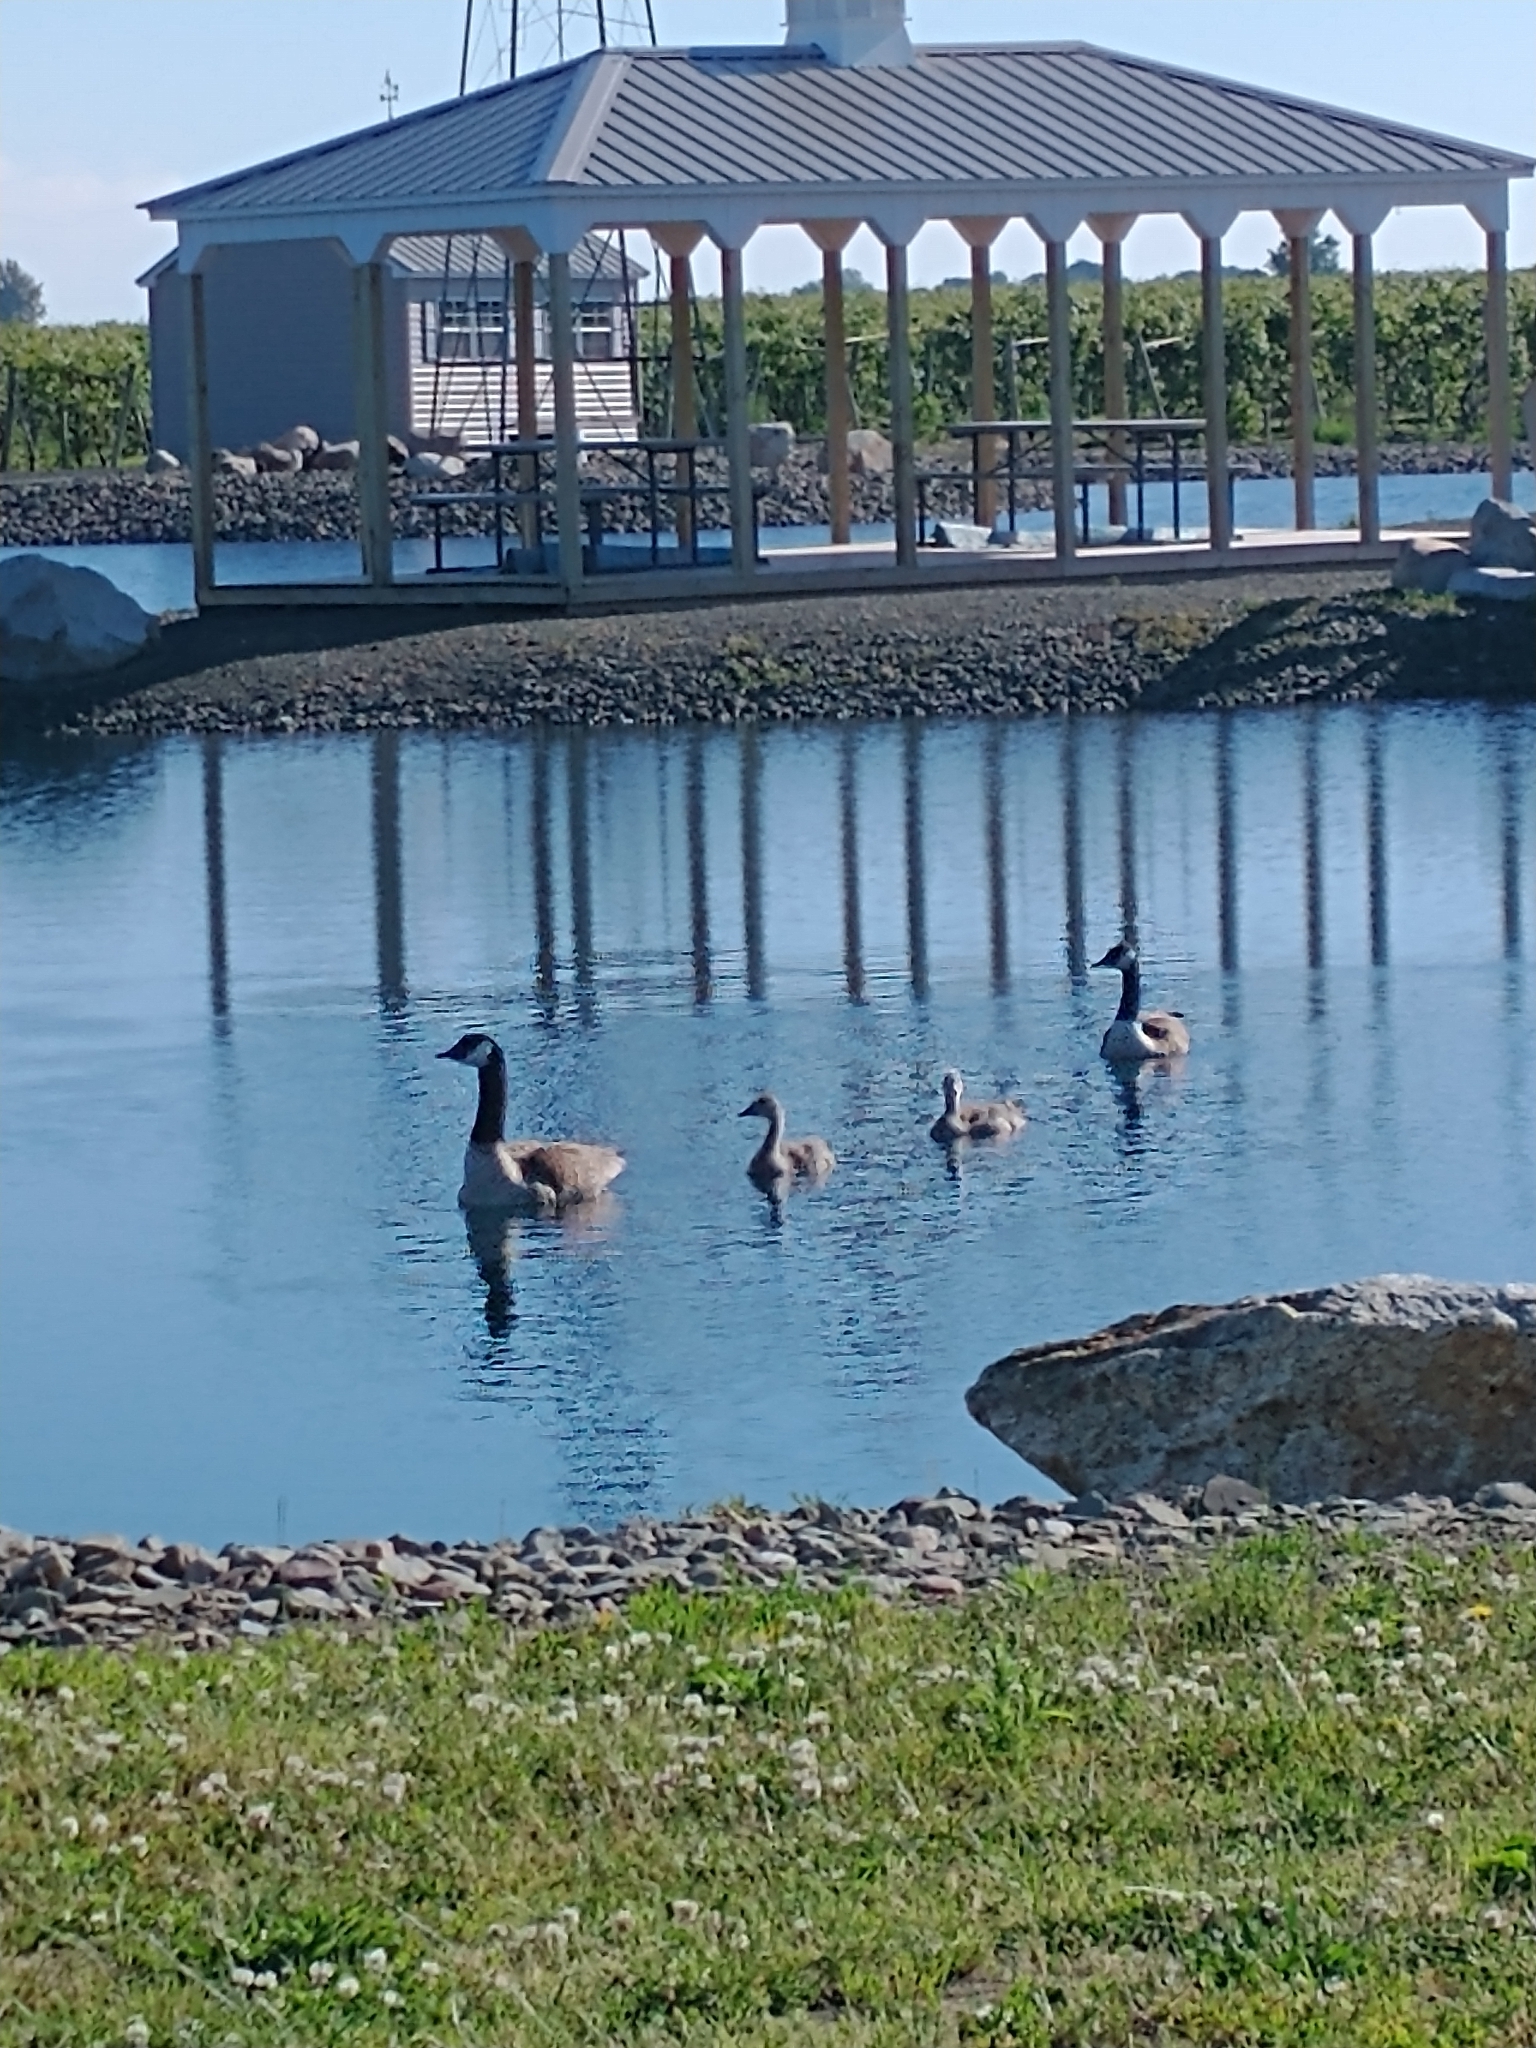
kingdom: Animalia
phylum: Chordata
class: Aves
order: Anseriformes
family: Anatidae
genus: Branta
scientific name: Branta canadensis
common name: Canada goose
